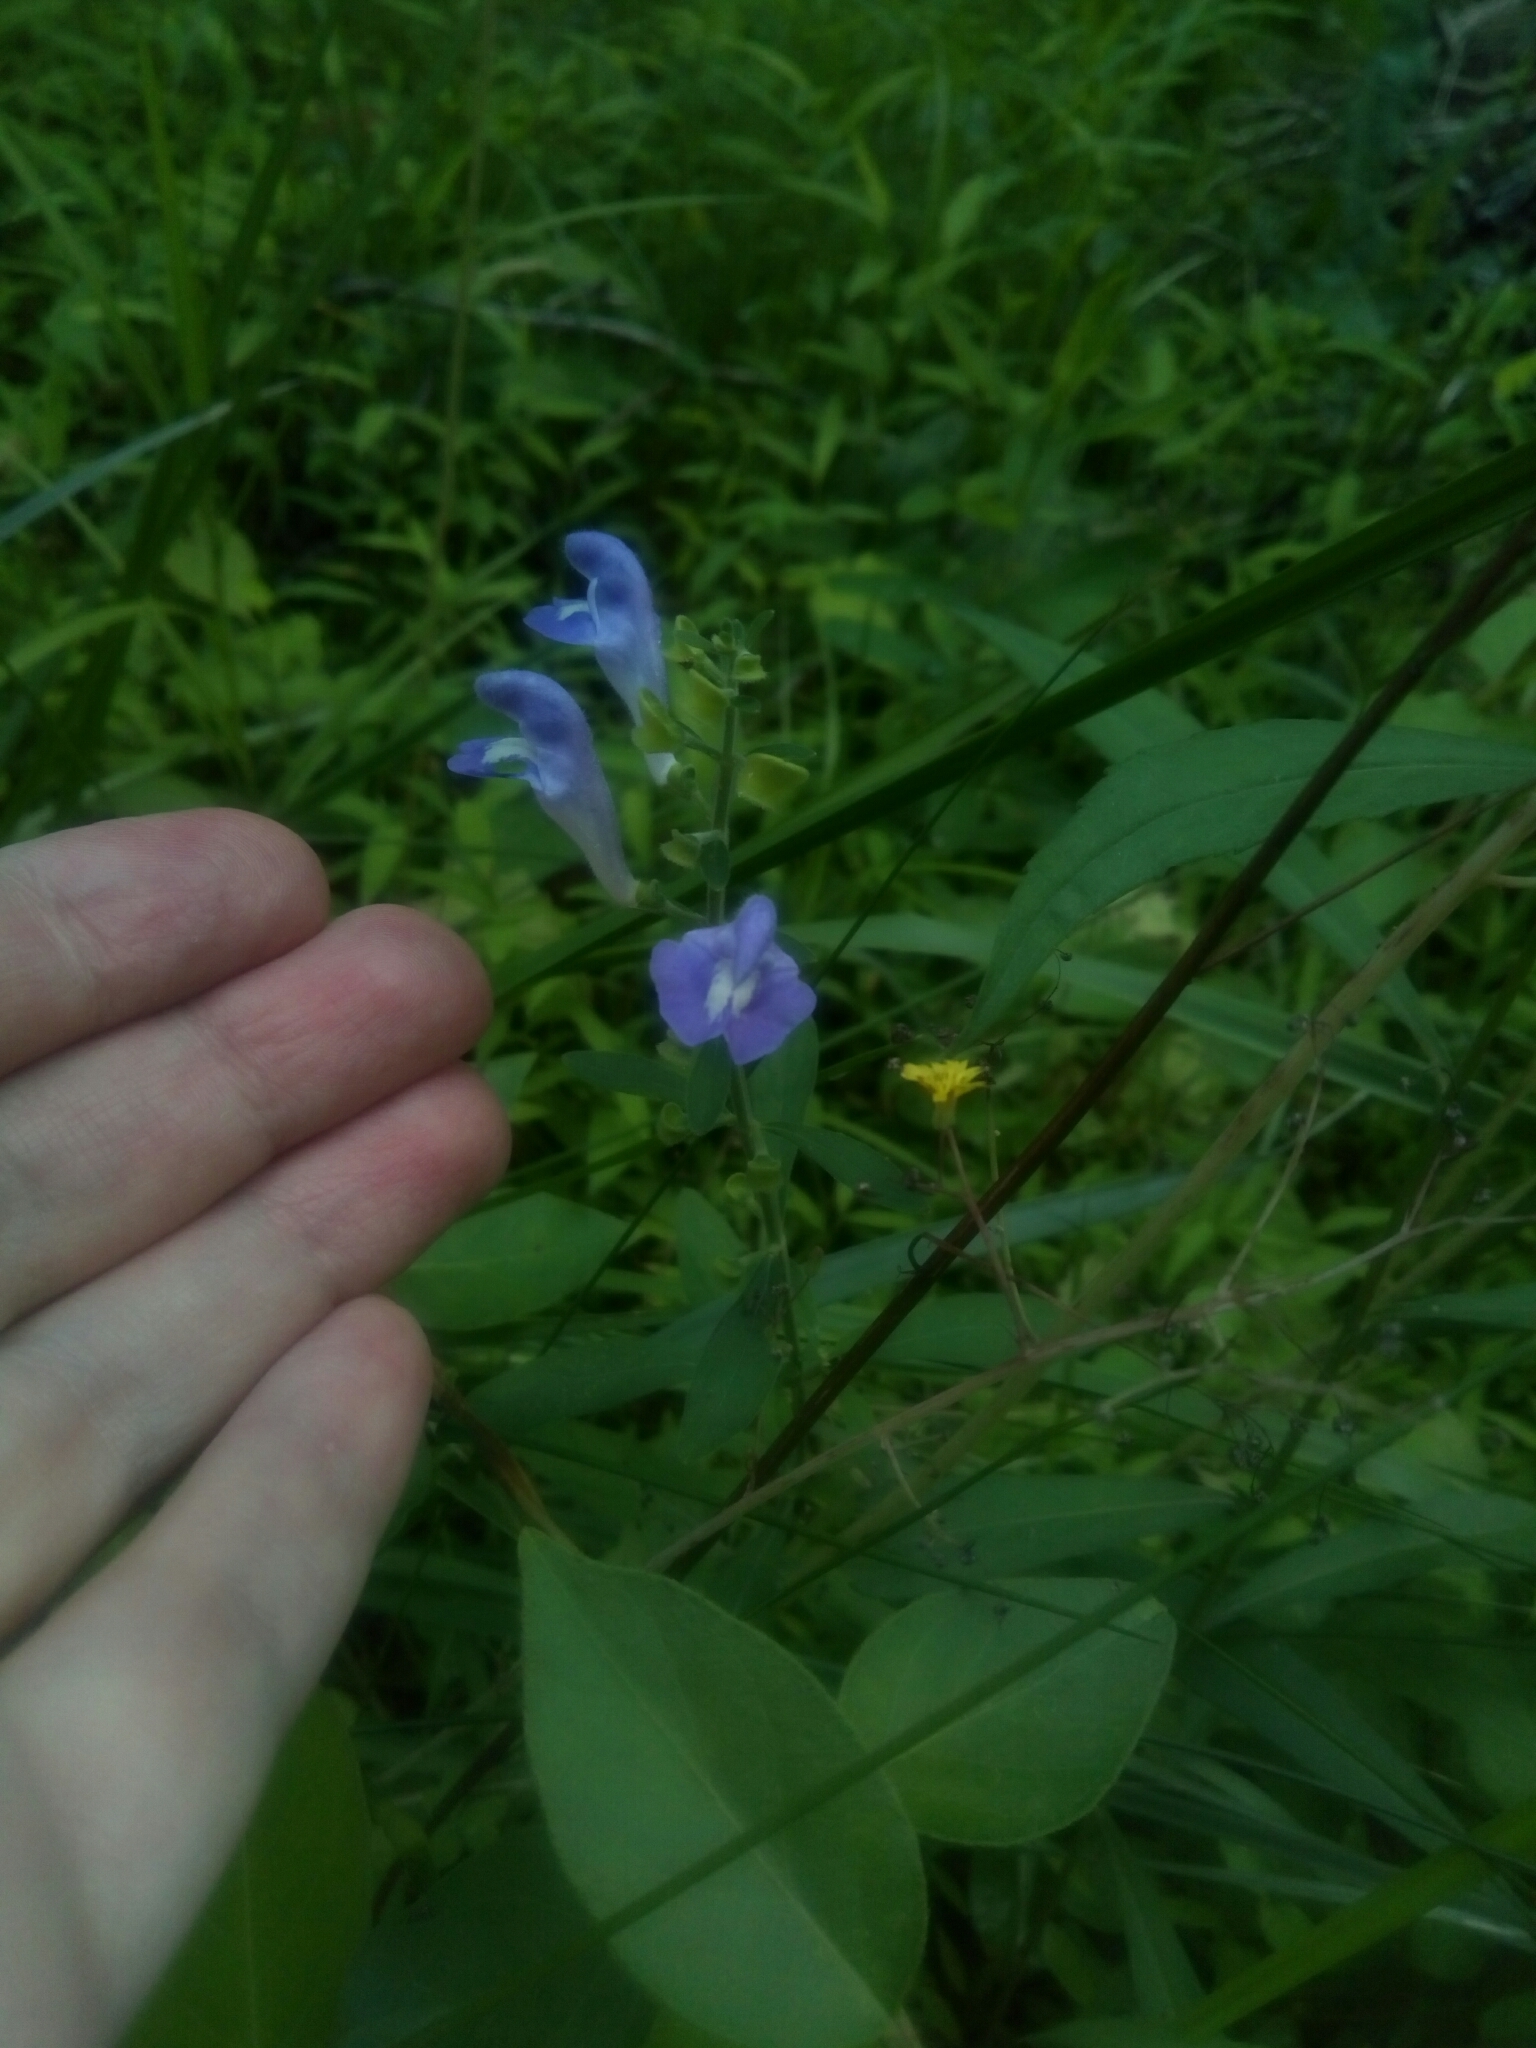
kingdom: Plantae
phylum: Tracheophyta
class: Magnoliopsida
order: Lamiales
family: Lamiaceae
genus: Scutellaria
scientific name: Scutellaria integrifolia
